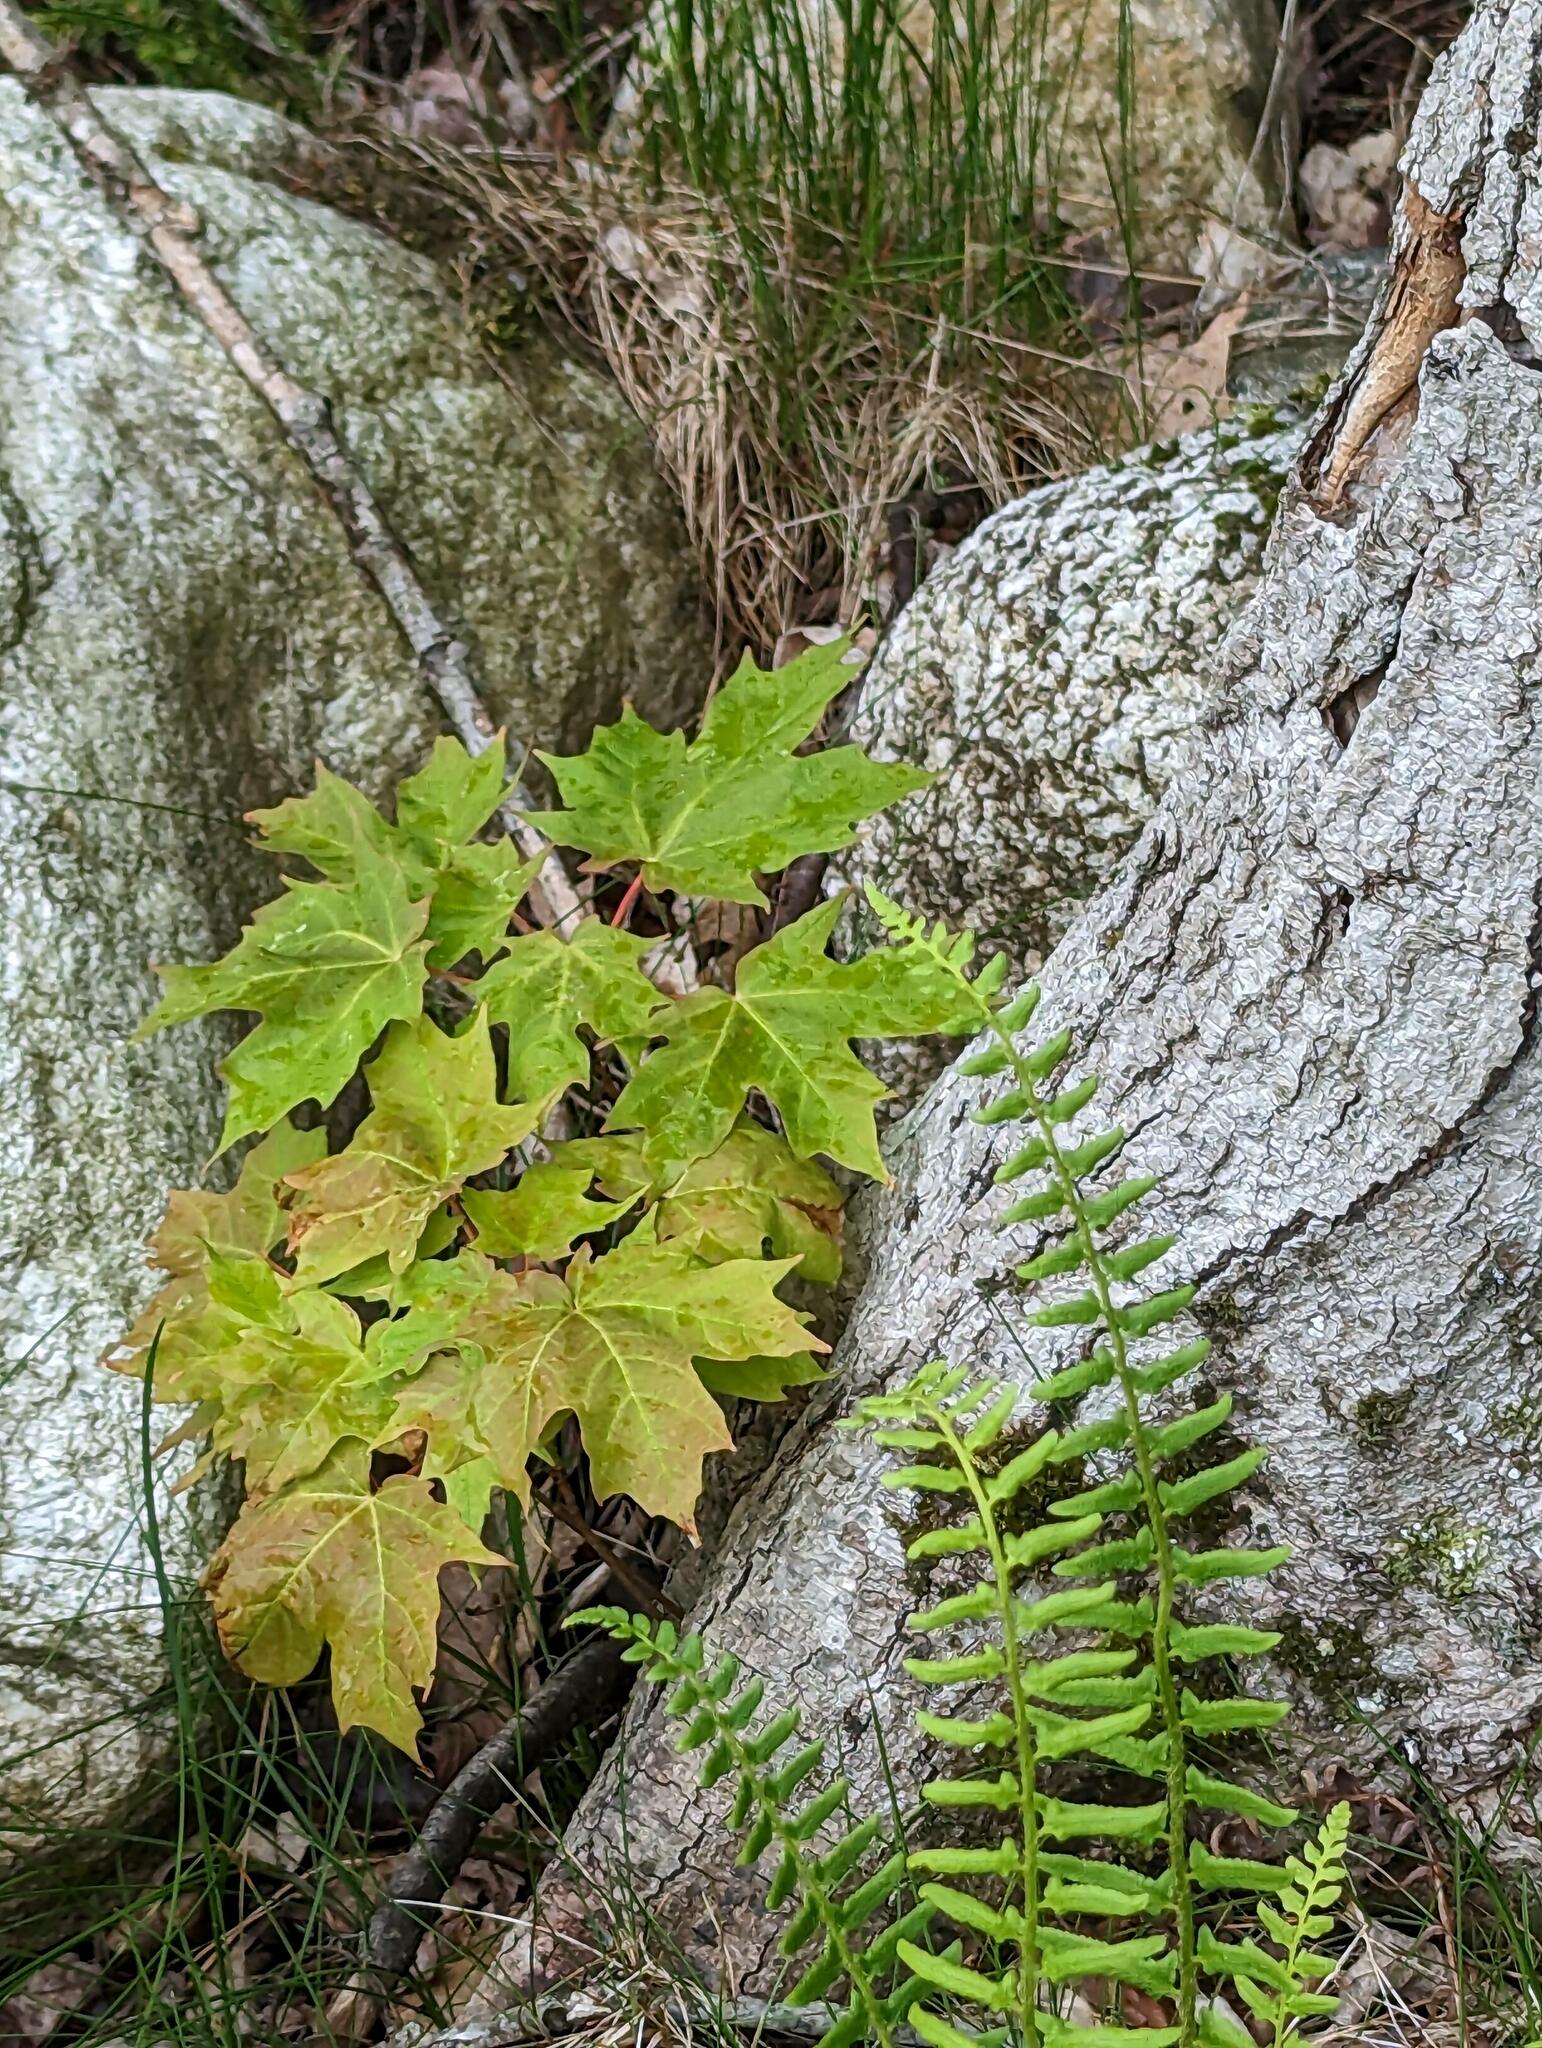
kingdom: Plantae
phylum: Tracheophyta
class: Magnoliopsida
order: Sapindales
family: Sapindaceae
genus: Acer
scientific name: Acer saccharum
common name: Sugar maple
